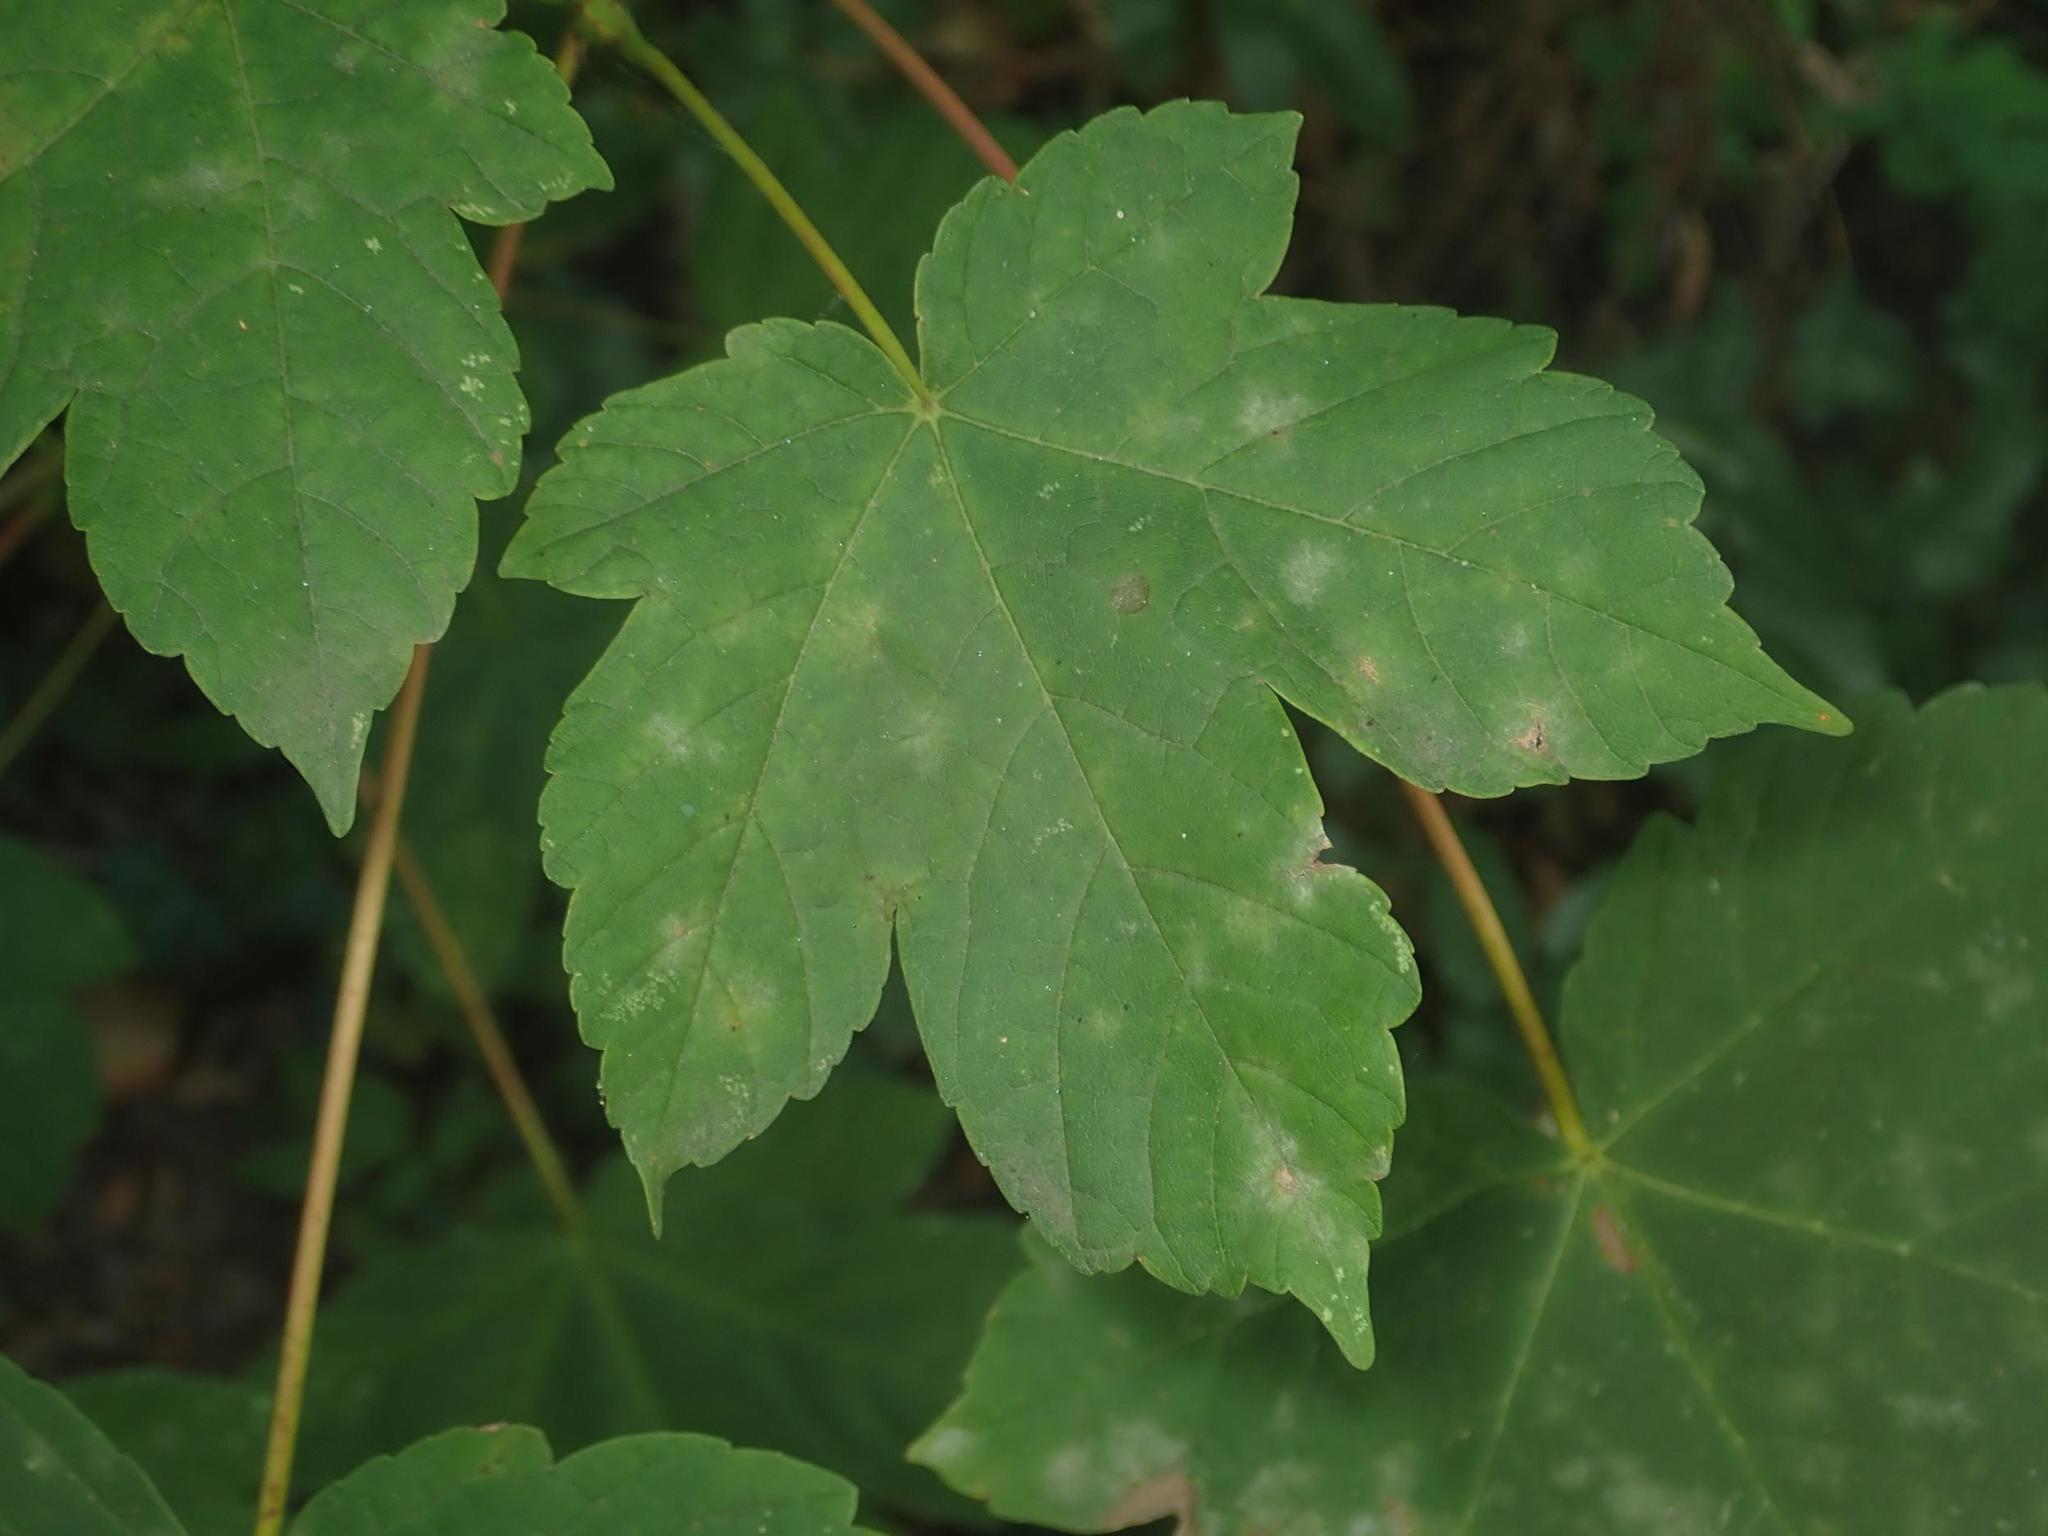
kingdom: Plantae
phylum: Tracheophyta
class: Magnoliopsida
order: Sapindales
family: Sapindaceae
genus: Acer
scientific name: Acer pseudoplatanus
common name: Sycamore
